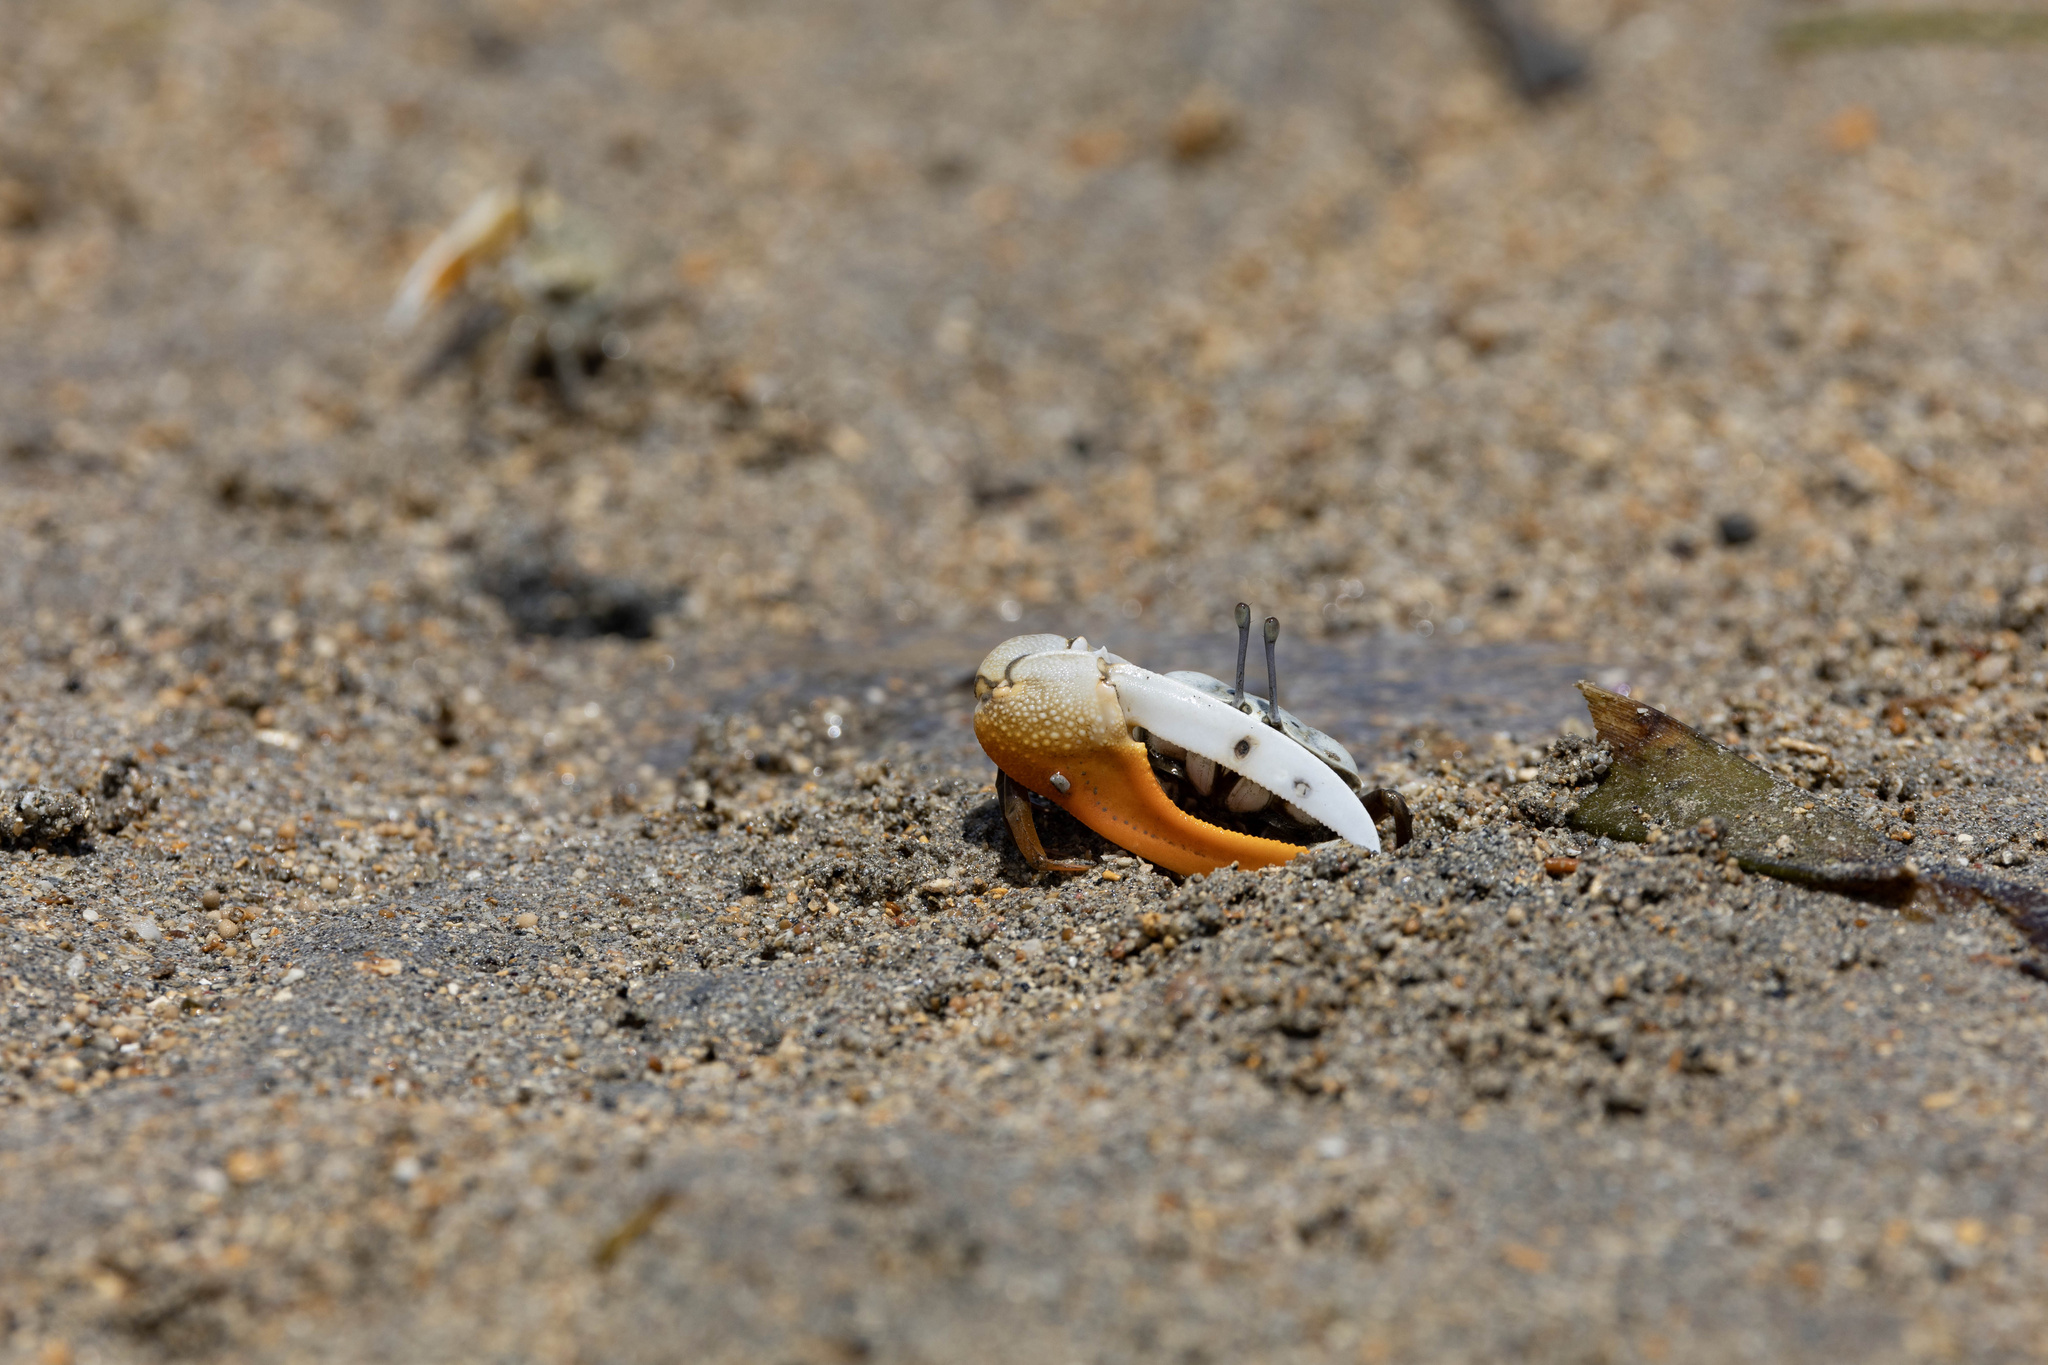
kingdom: Animalia
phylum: Arthropoda
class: Malacostraca
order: Decapoda
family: Ocypodidae
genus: Gelasimus
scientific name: Gelasimus vocans
